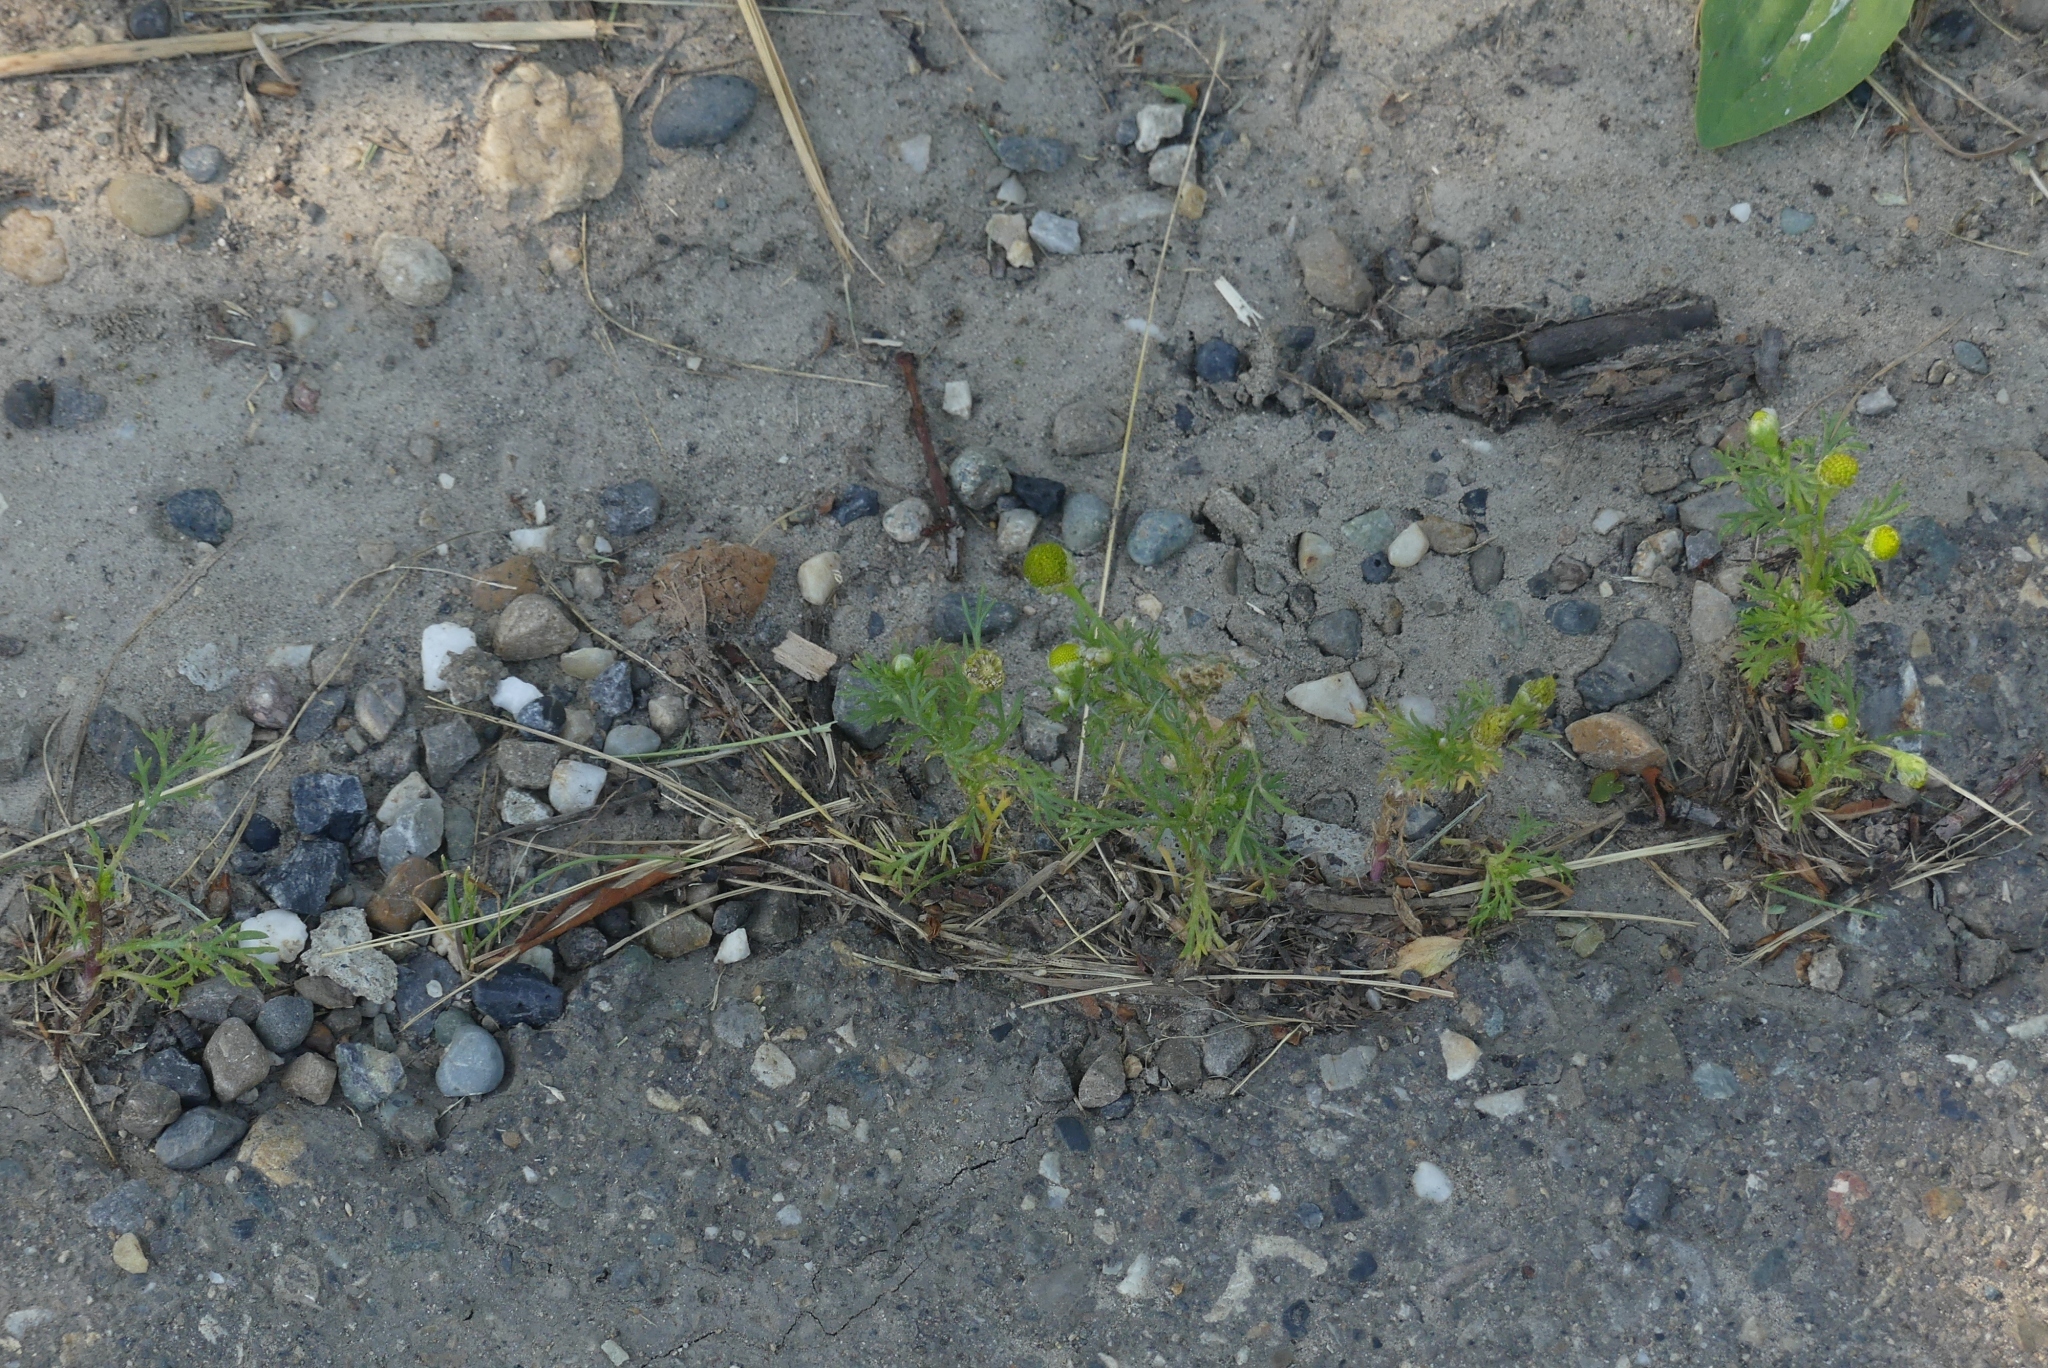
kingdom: Plantae
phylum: Tracheophyta
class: Magnoliopsida
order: Asterales
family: Asteraceae
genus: Matricaria
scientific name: Matricaria discoidea
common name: Disc mayweed
